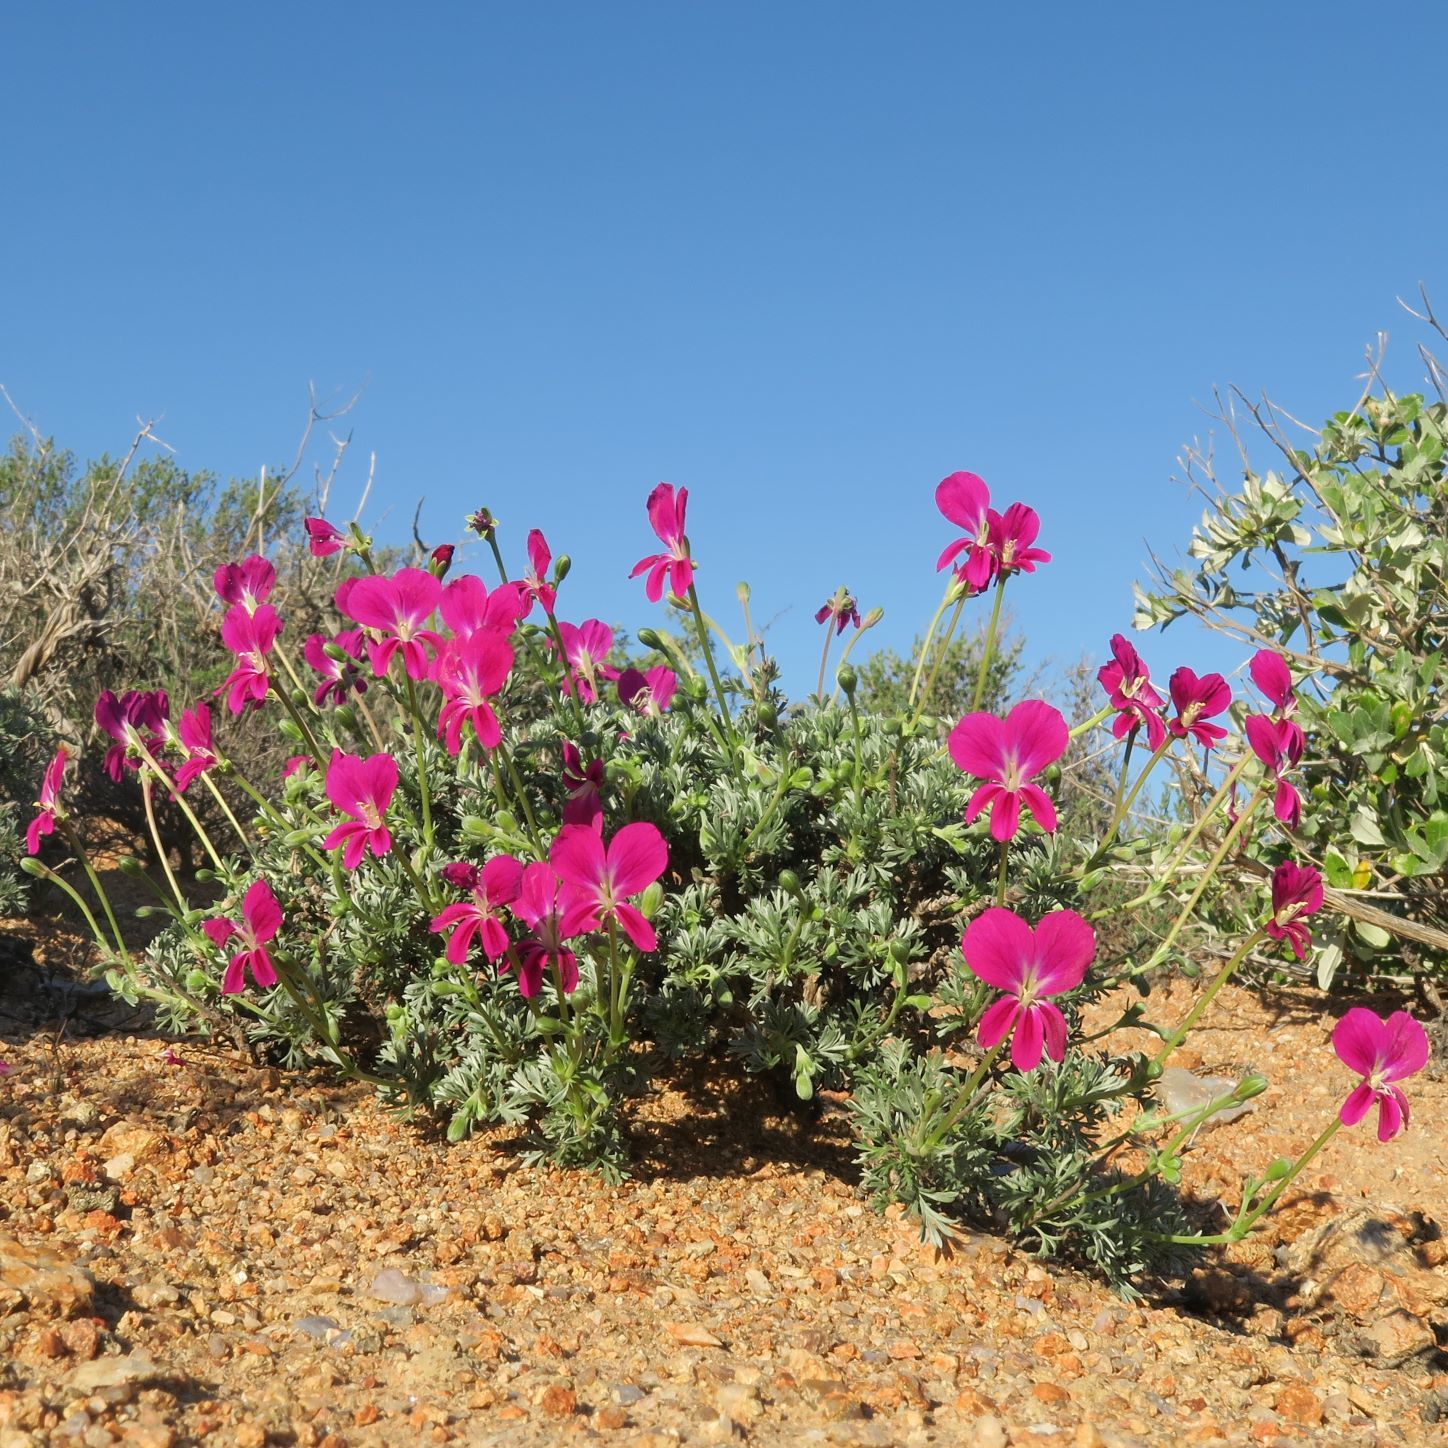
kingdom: Plantae
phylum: Tracheophyta
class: Magnoliopsida
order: Geraniales
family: Geraniaceae
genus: Pelargonium
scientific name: Pelargonium sericifolium
